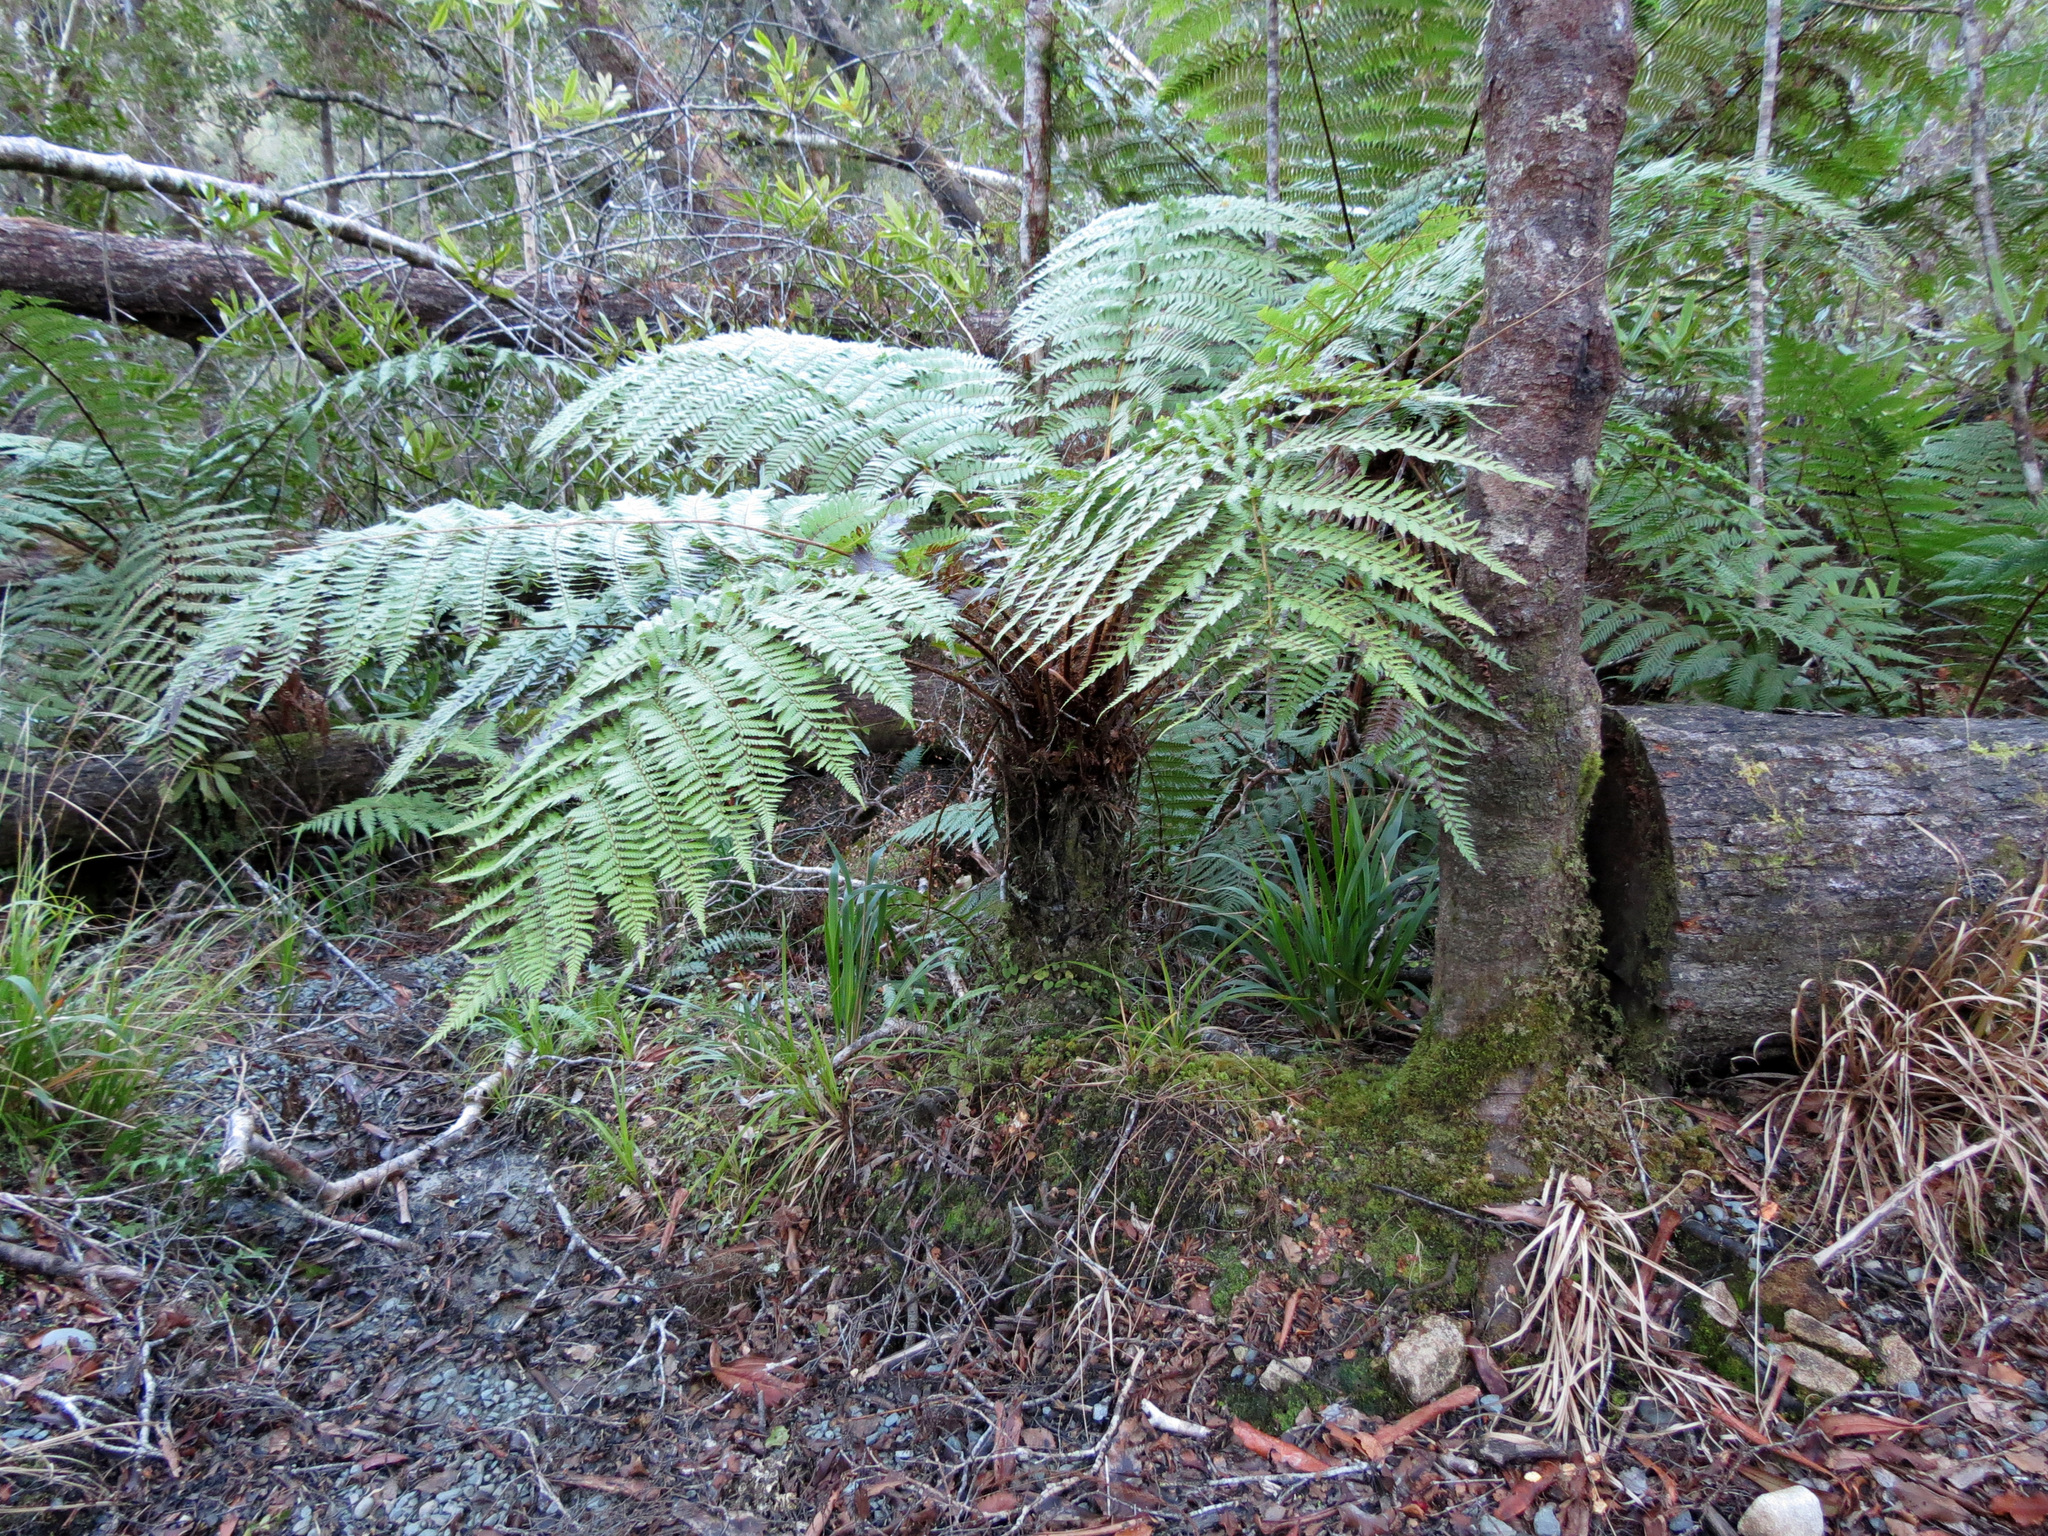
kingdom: Plantae
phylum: Tracheophyta
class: Polypodiopsida
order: Cyatheales
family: Cyatheaceae
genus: Alsophila
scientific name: Alsophila smithii
